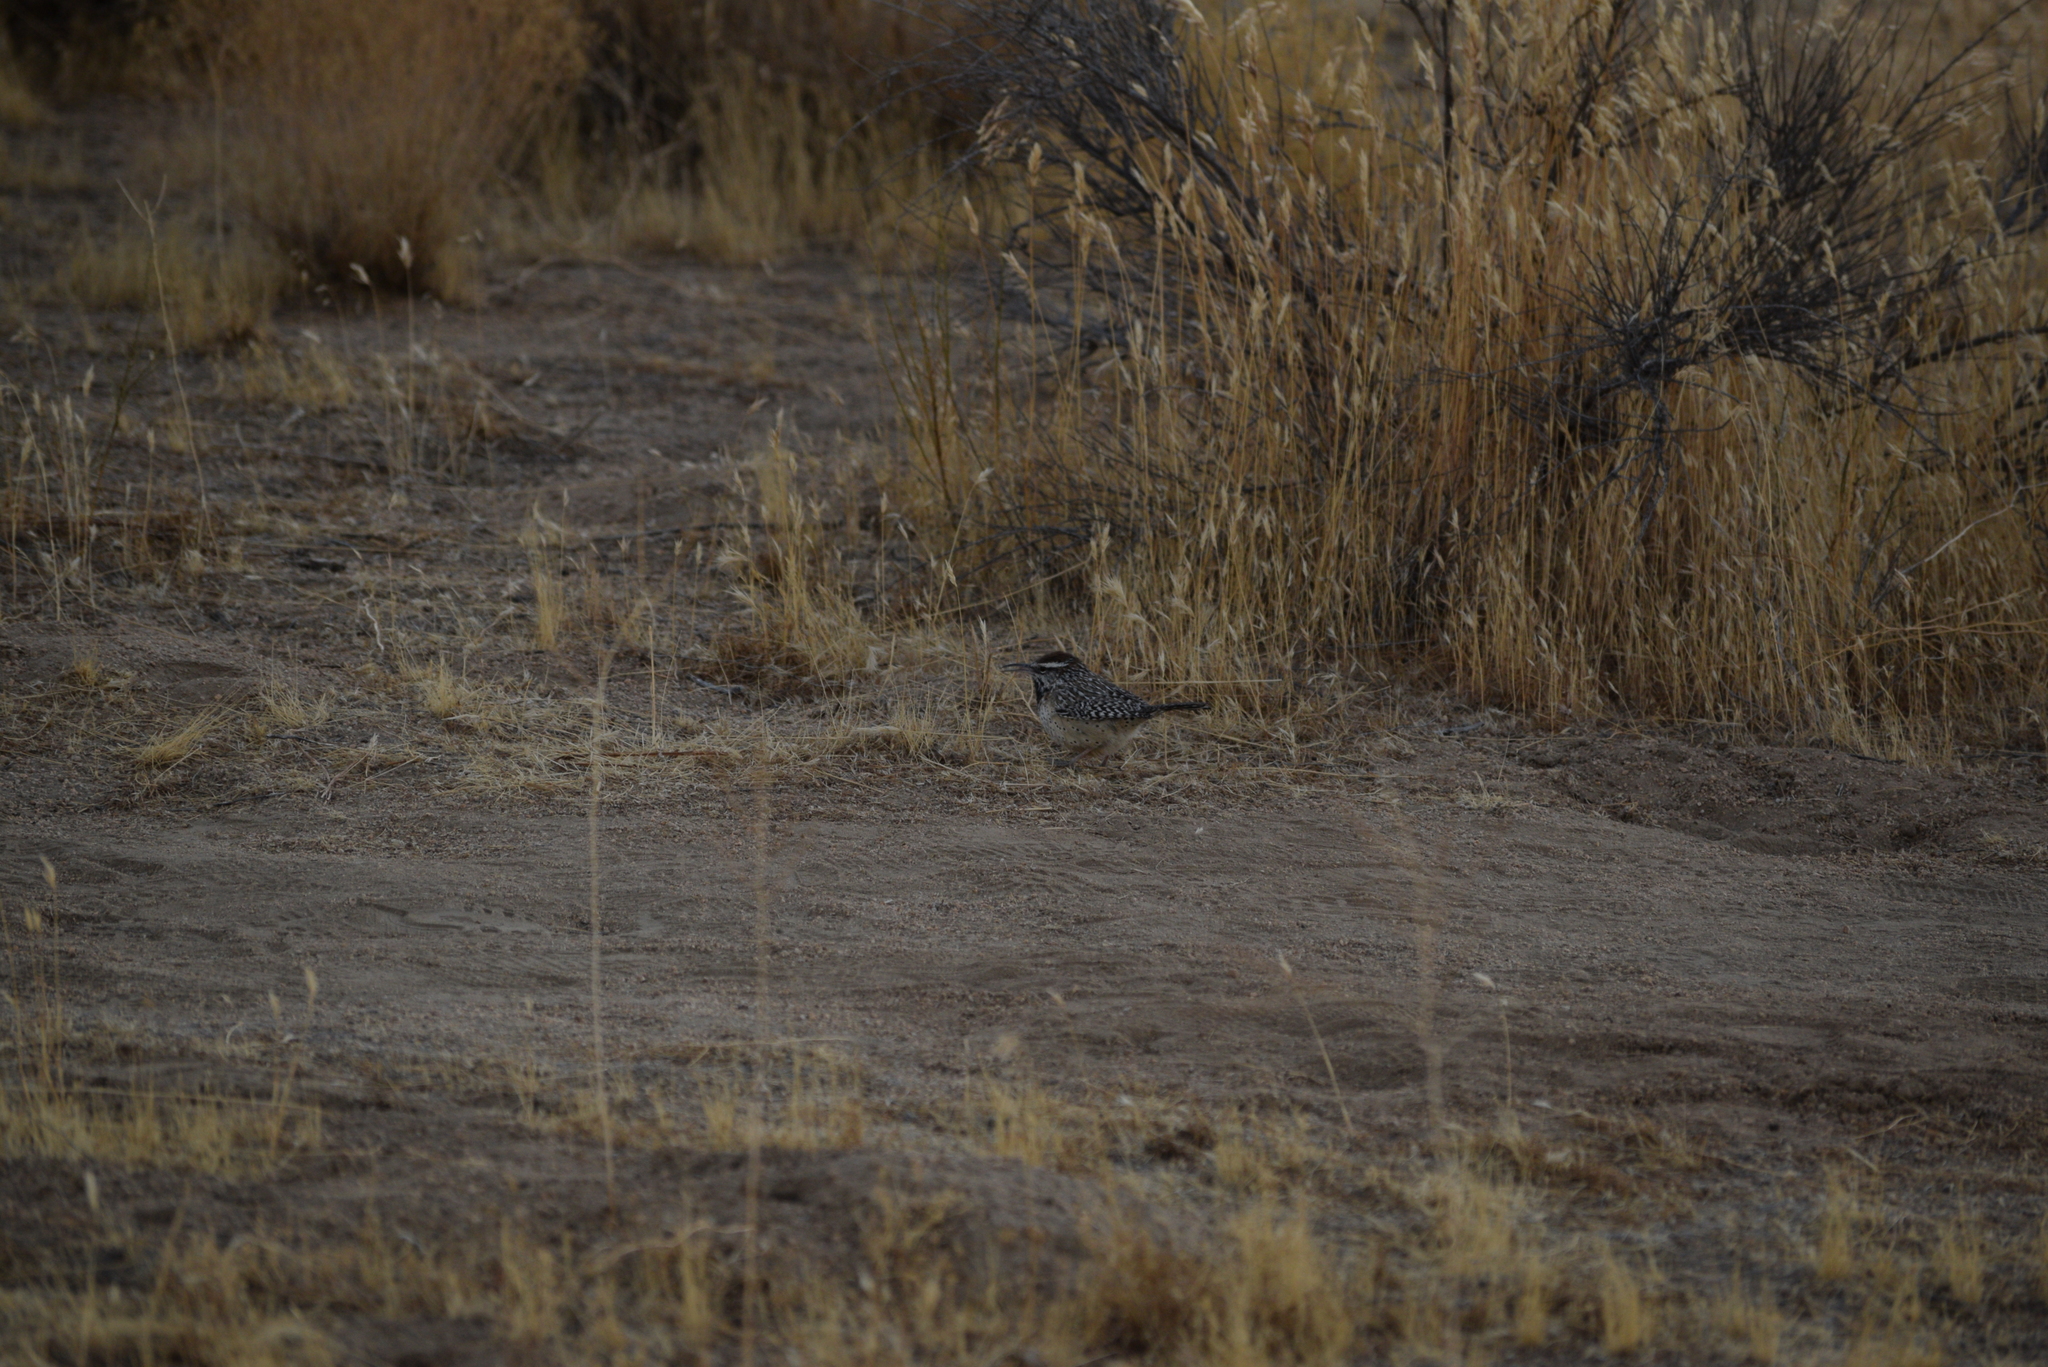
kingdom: Animalia
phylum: Chordata
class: Aves
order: Passeriformes
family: Troglodytidae
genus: Campylorhynchus
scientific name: Campylorhynchus brunneicapillus
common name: Cactus wren
